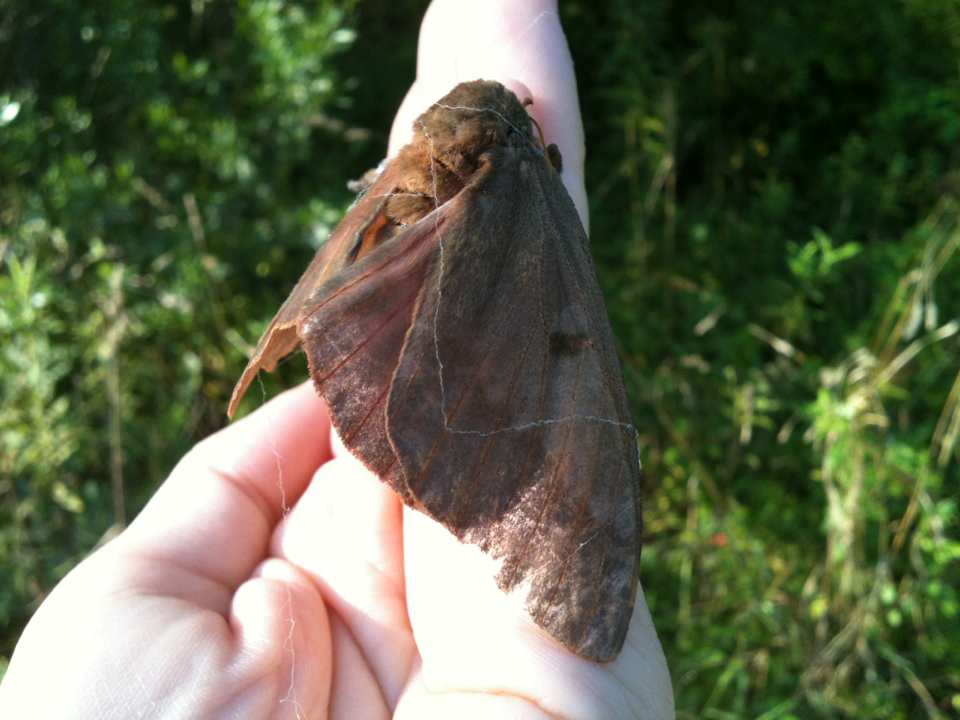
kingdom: Animalia
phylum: Arthropoda
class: Insecta
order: Lepidoptera
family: Saturniidae
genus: Citheronia
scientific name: Citheronia sepulcralis
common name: Pine-devil moth
